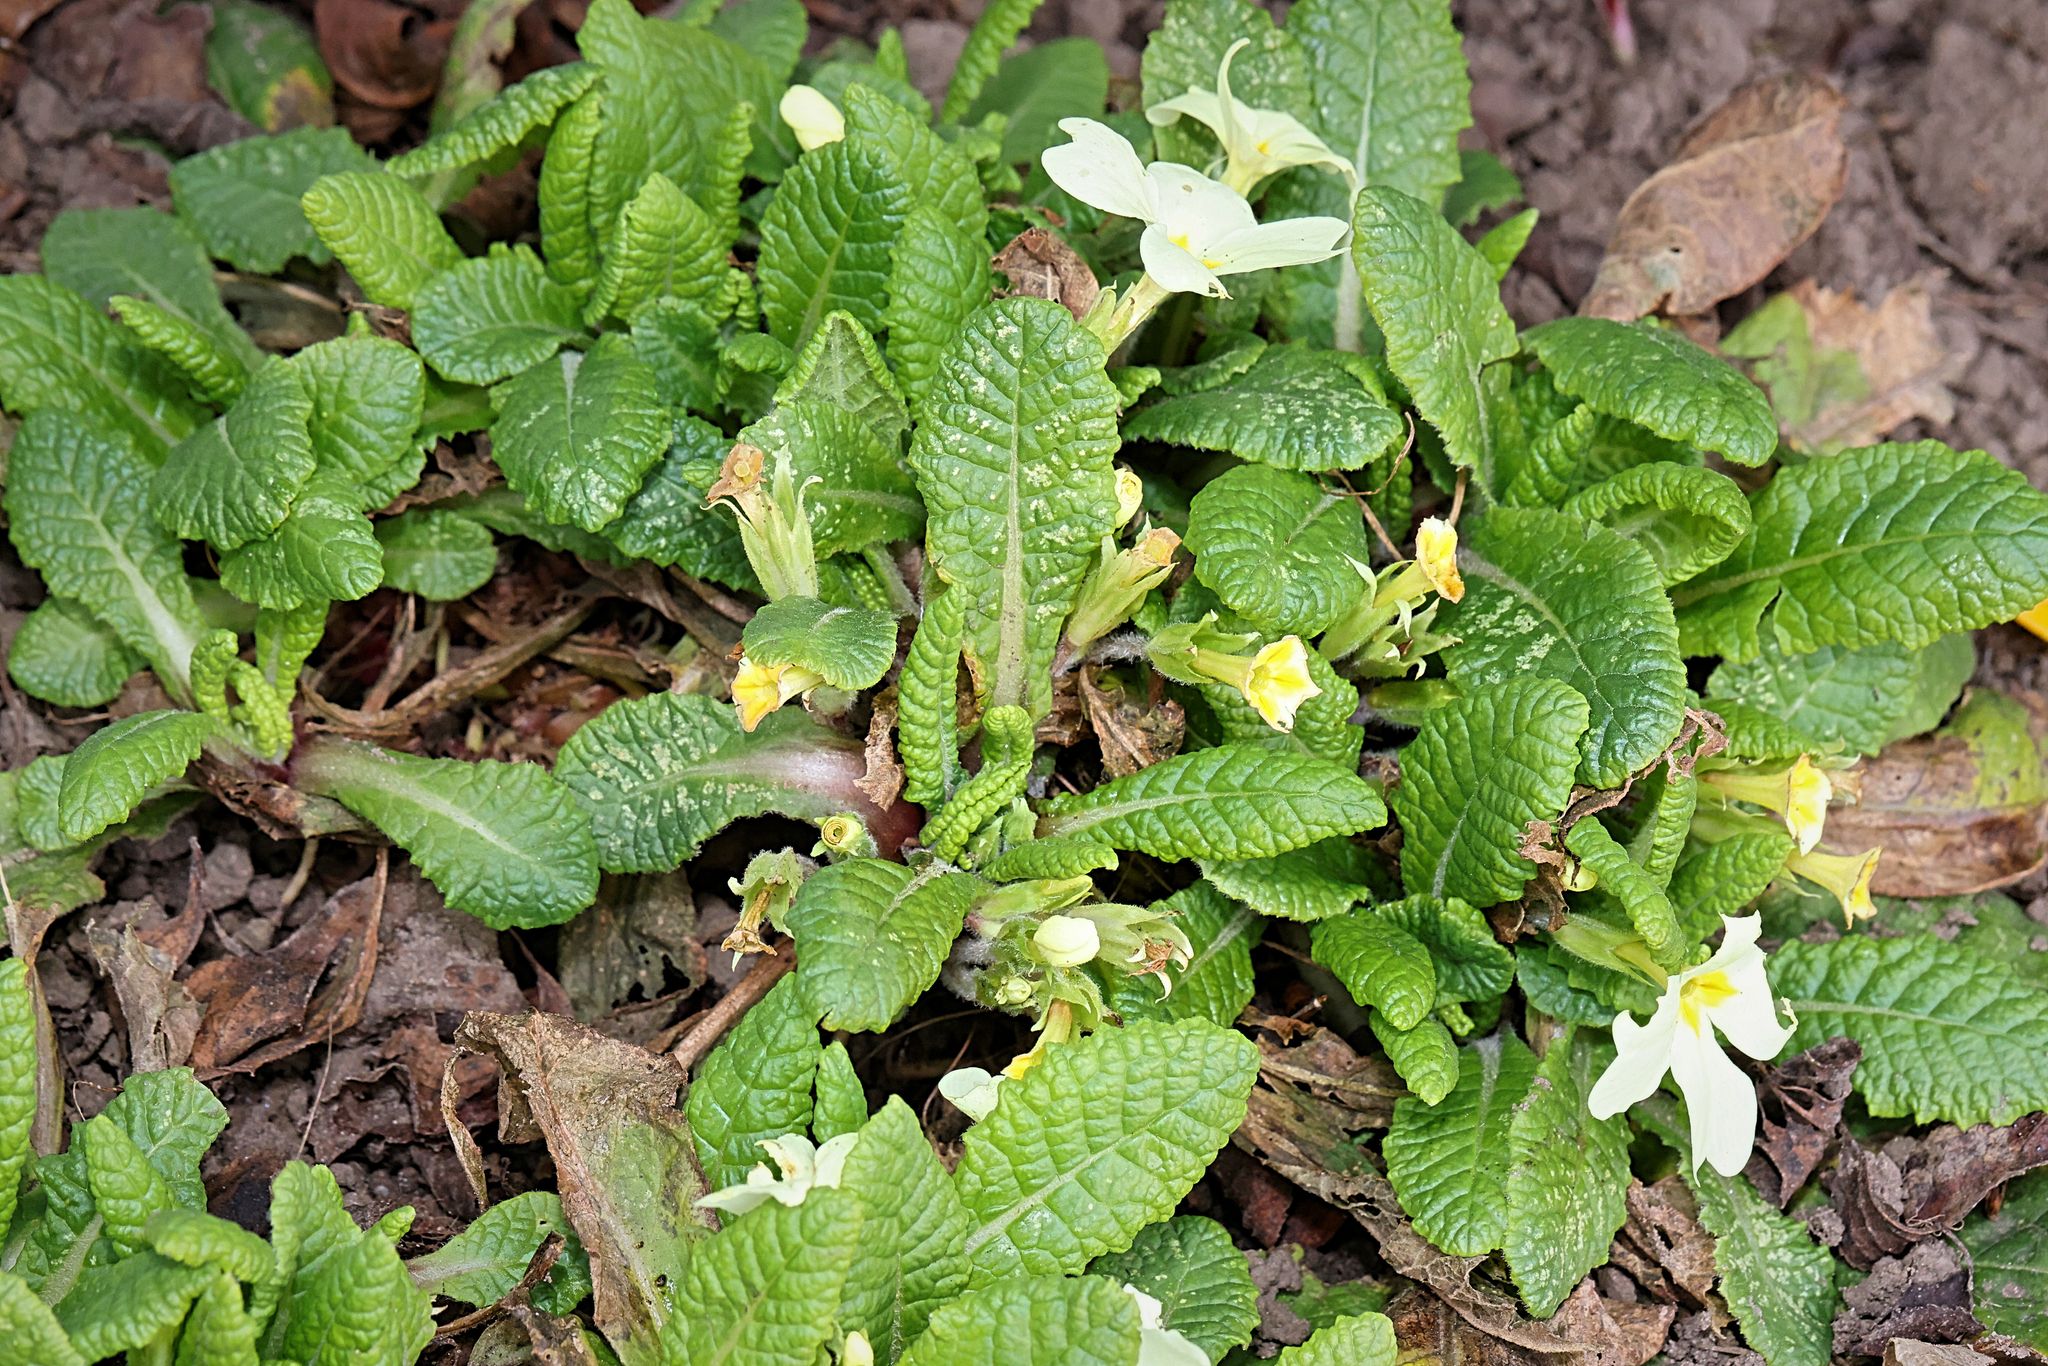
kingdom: Plantae
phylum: Tracheophyta
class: Magnoliopsida
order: Ericales
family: Primulaceae
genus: Primula
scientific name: Primula vulgaris
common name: Primrose
